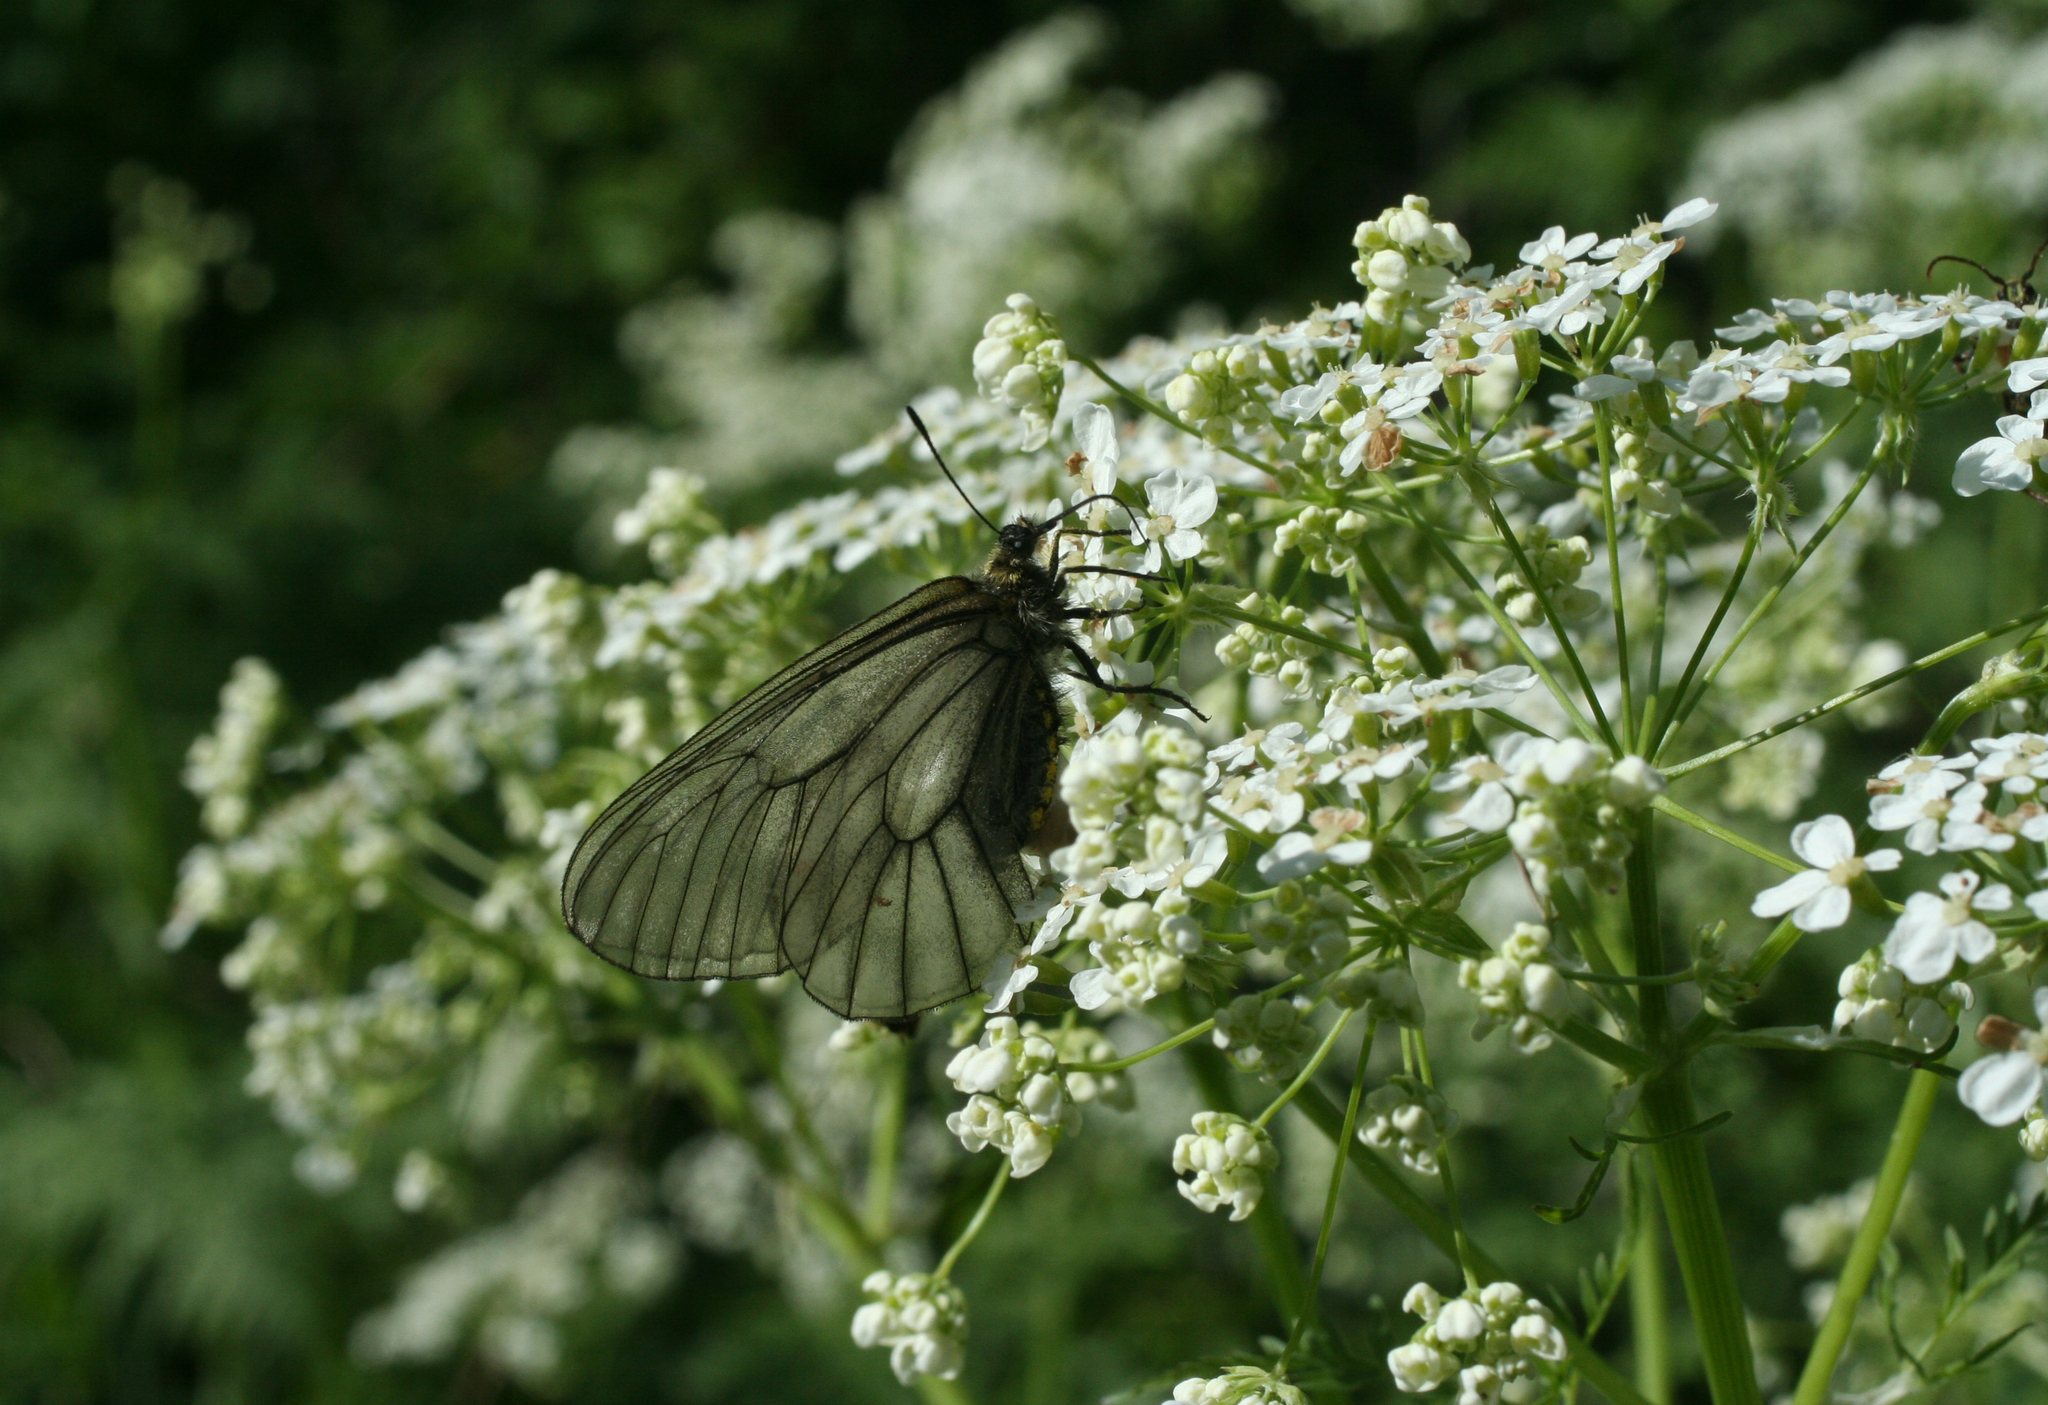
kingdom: Animalia
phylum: Arthropoda
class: Insecta
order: Lepidoptera
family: Papilionidae
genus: Parnassius
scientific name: Parnassius stubbendorfii
